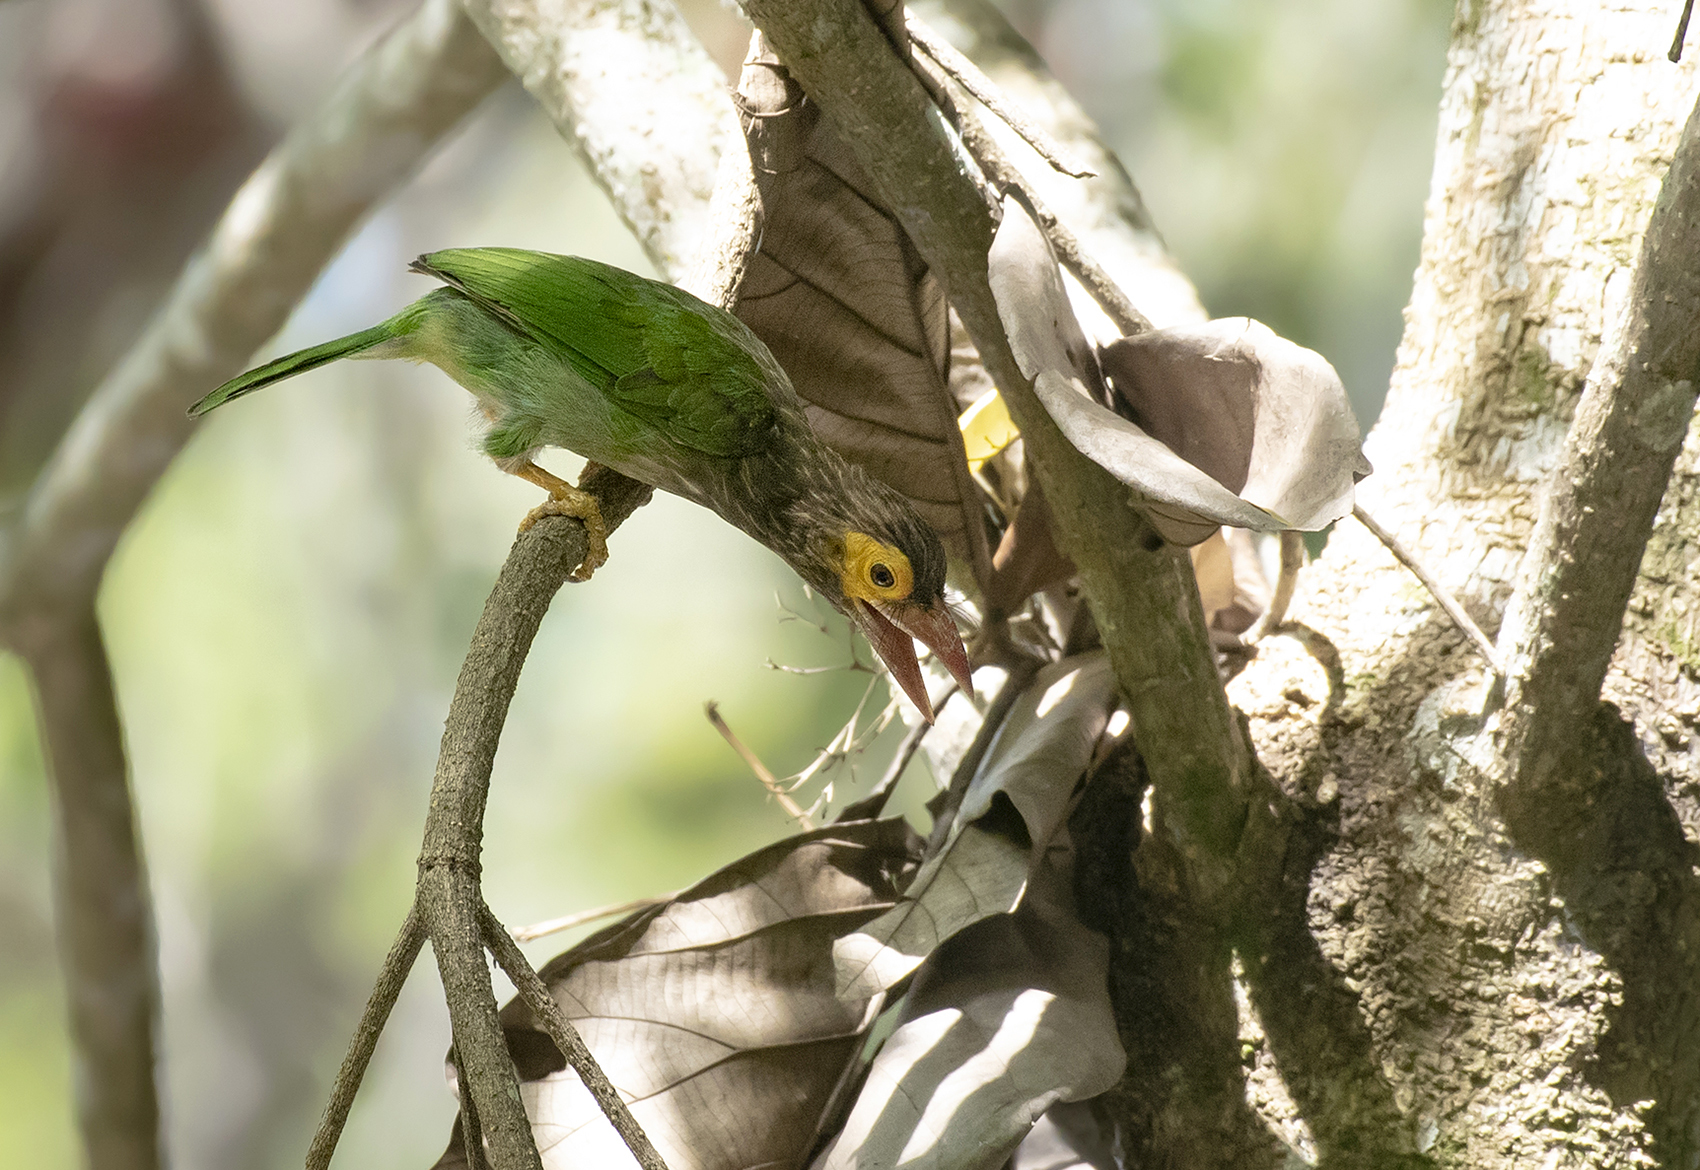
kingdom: Animalia
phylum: Chordata
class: Aves
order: Piciformes
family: Megalaimidae
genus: Psilopogon
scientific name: Psilopogon zeylanicus
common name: Brown-headed barbet
